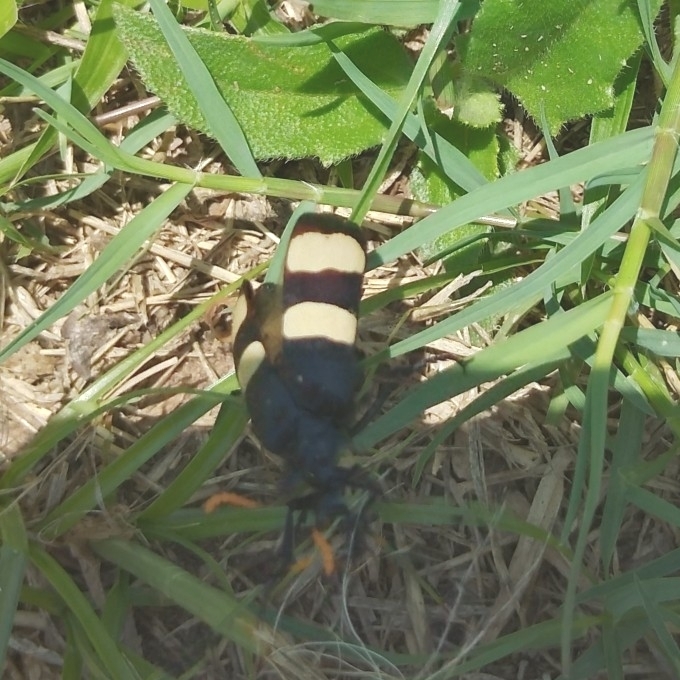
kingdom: Animalia
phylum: Arthropoda
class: Insecta
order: Coleoptera
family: Meloidae
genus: Hycleus
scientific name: Hycleus
